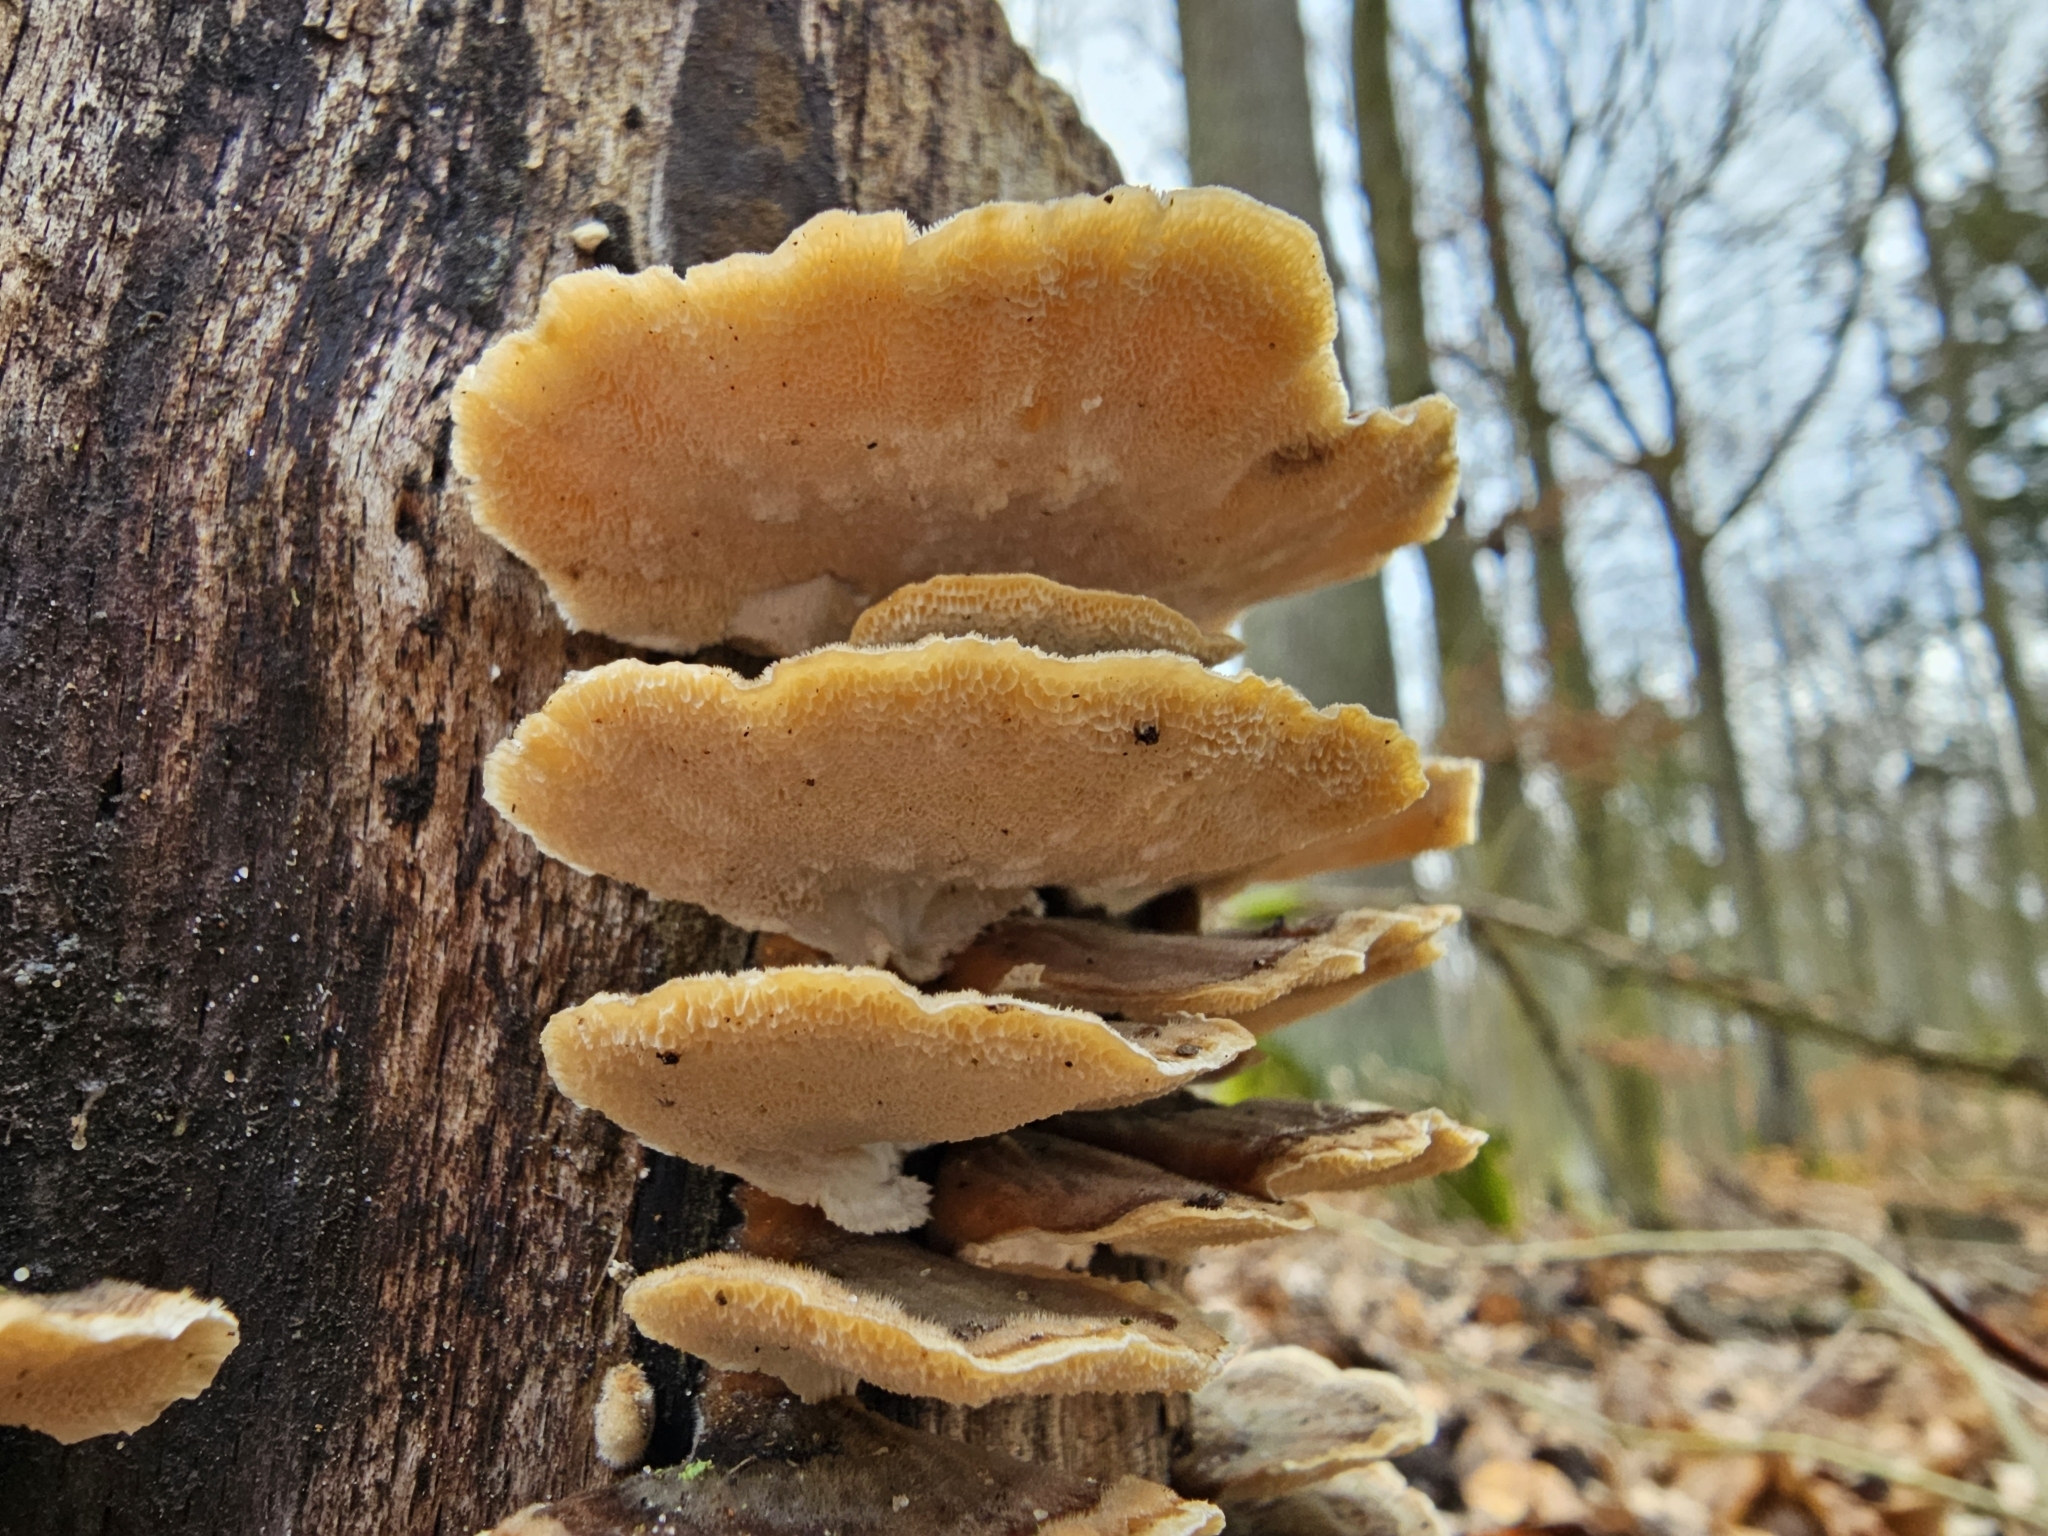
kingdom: Fungi
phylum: Basidiomycota
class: Agaricomycetes
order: Polyporales
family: Polyporaceae
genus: Trametes
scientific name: Trametes versicolor
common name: Turkeytail
